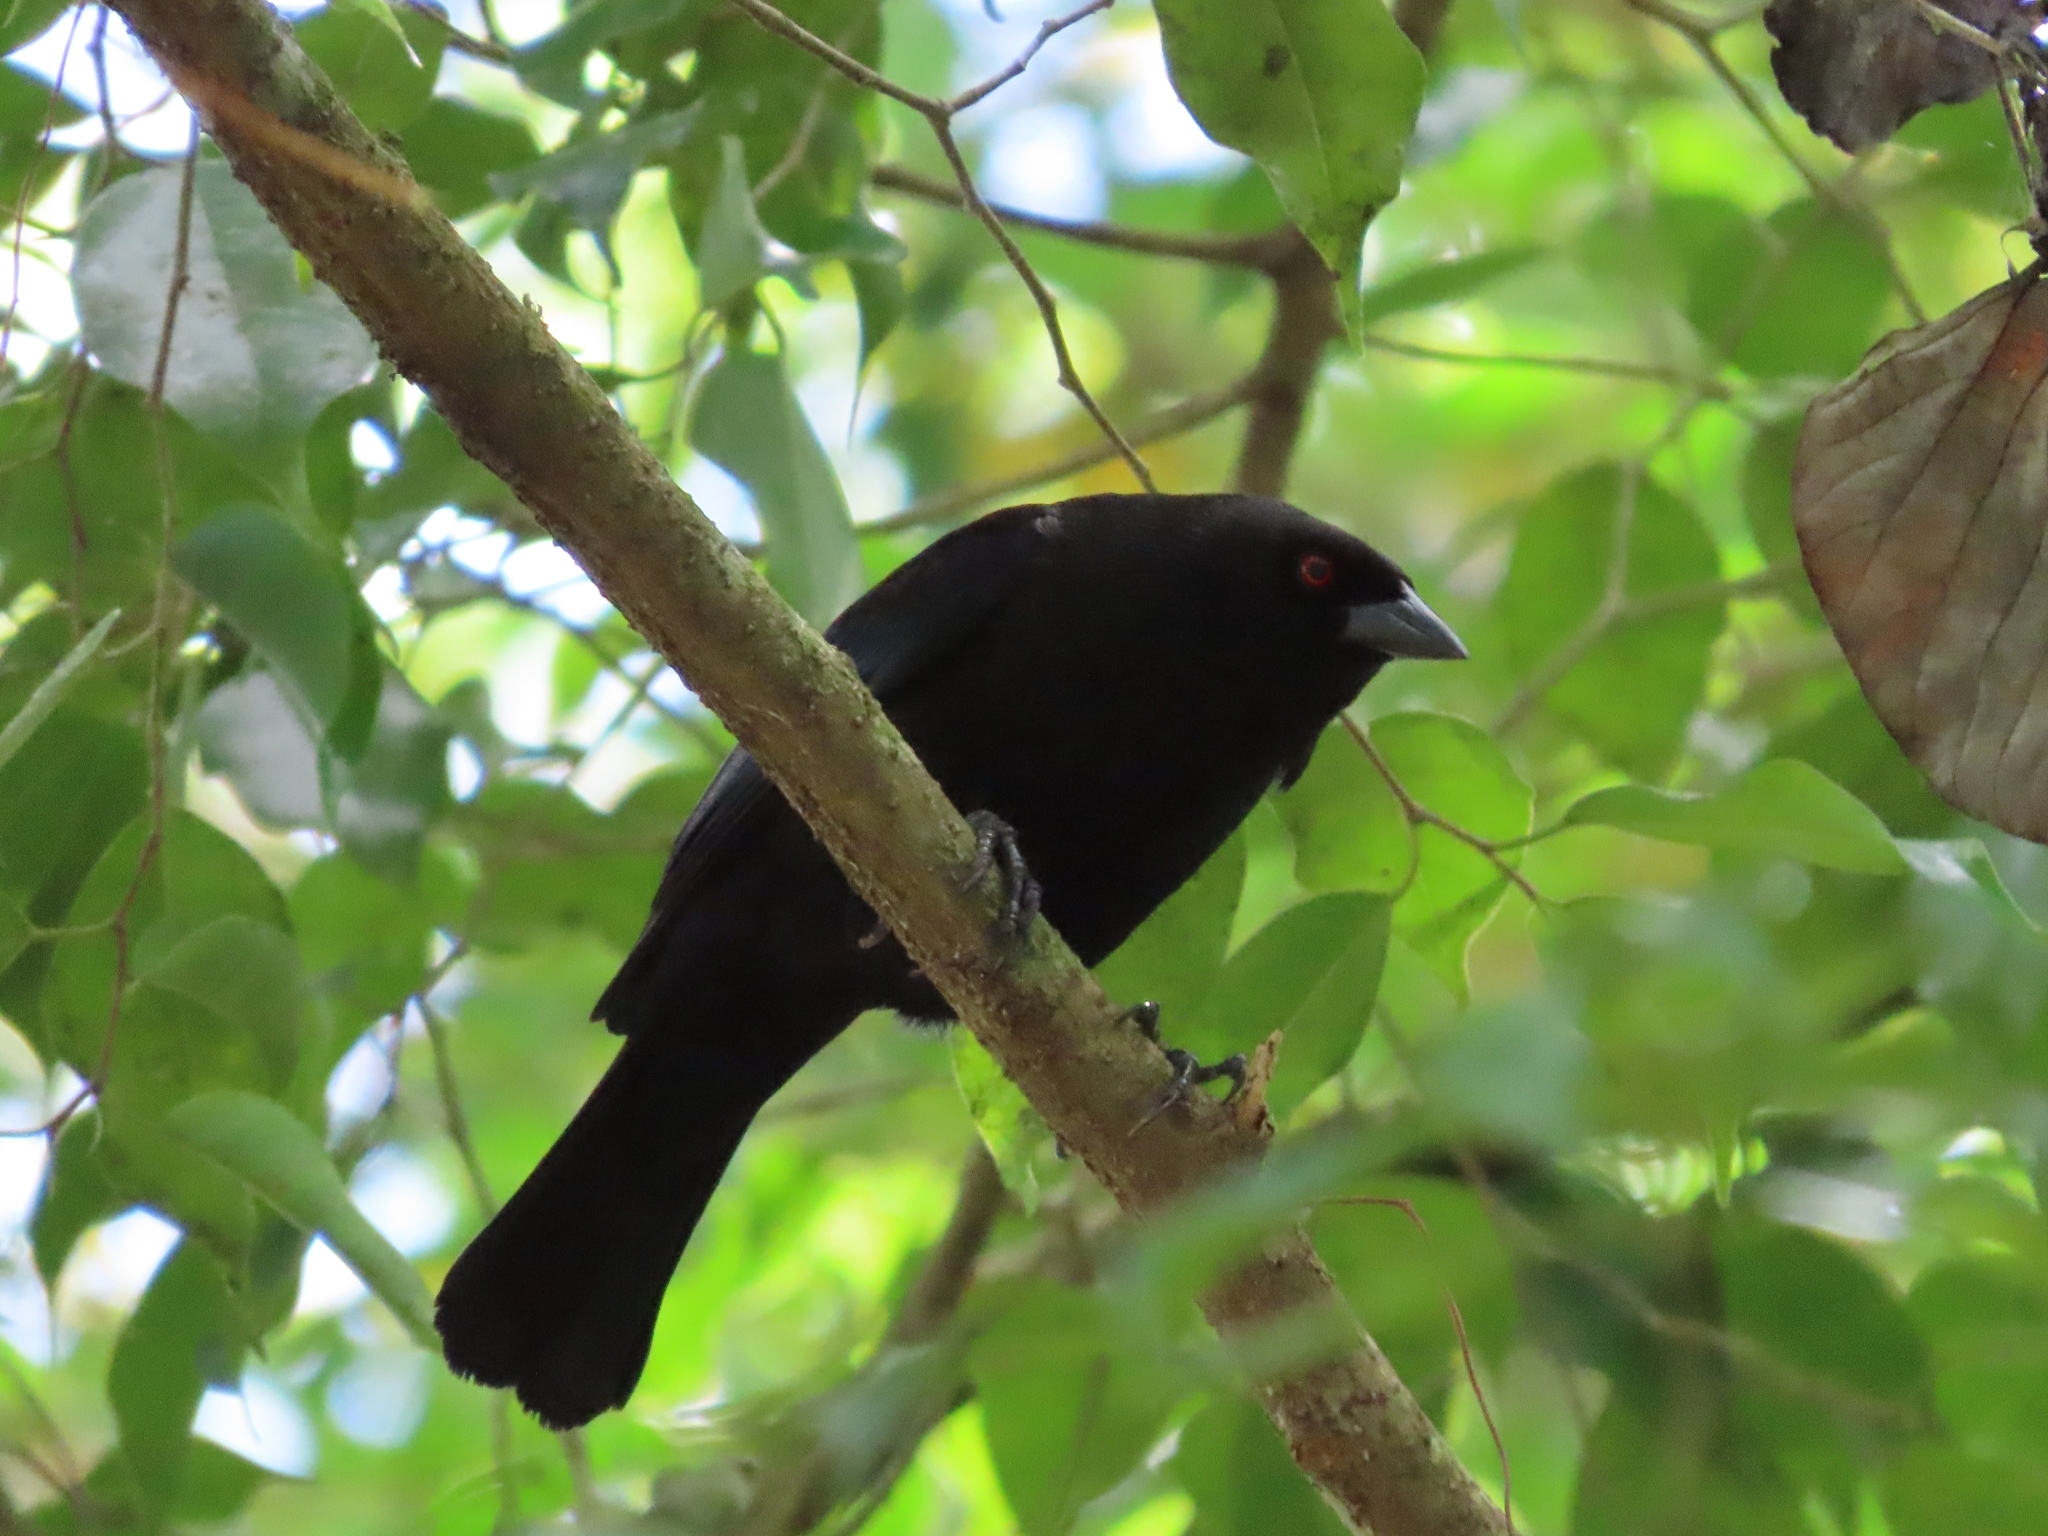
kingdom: Animalia
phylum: Chordata
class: Aves
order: Passeriformes
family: Icteridae
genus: Molothrus
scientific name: Molothrus aeneus
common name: Bronzed cowbird
